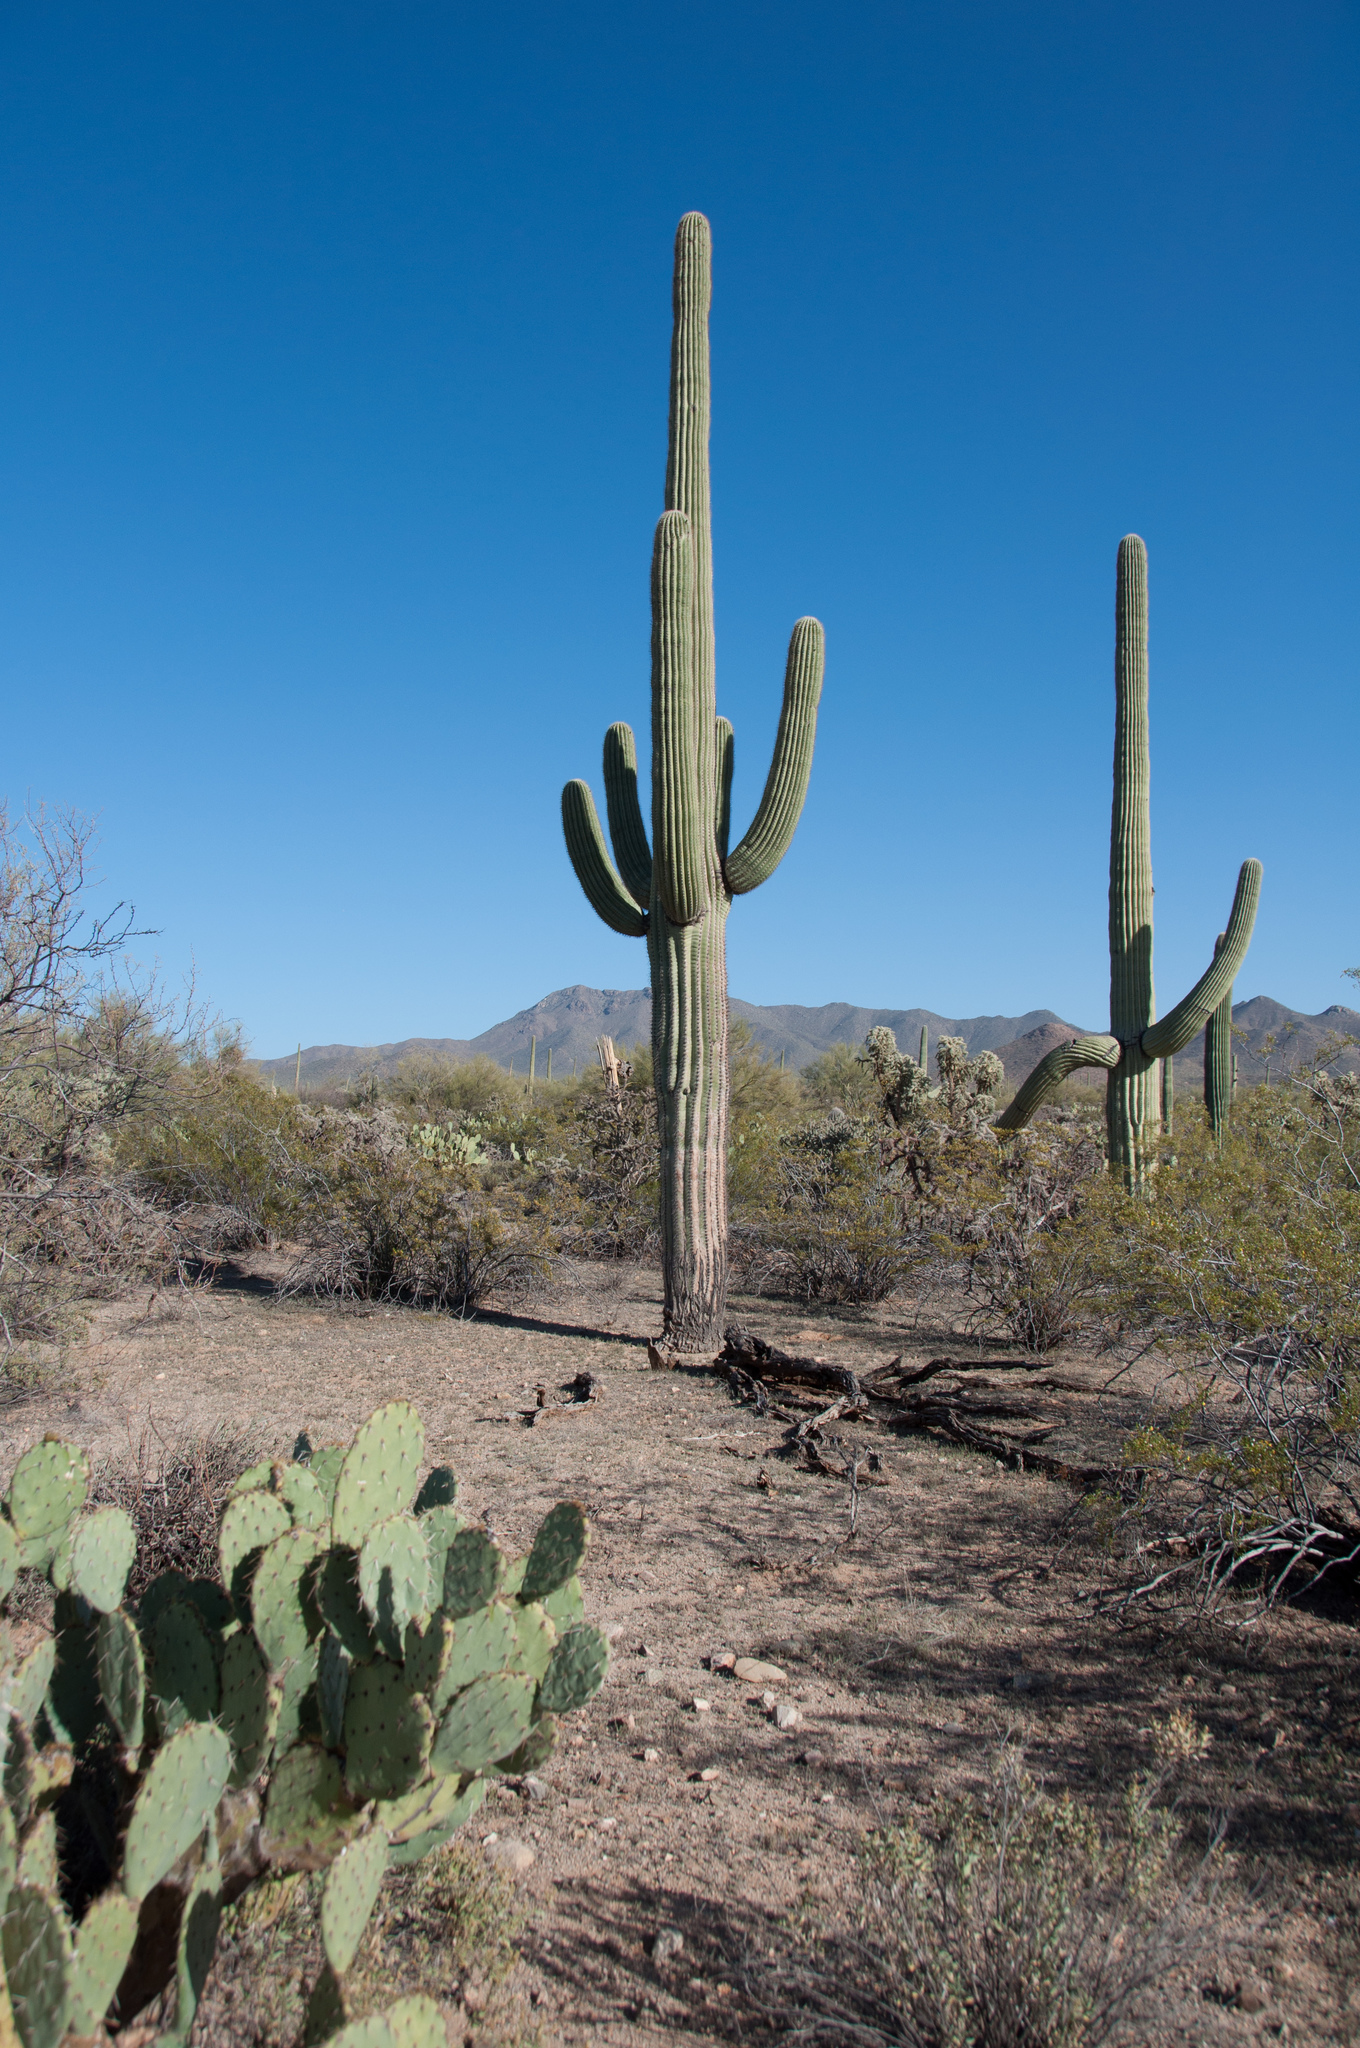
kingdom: Plantae
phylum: Tracheophyta
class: Magnoliopsida
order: Caryophyllales
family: Cactaceae
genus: Carnegiea
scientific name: Carnegiea gigantea
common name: Saguaro
